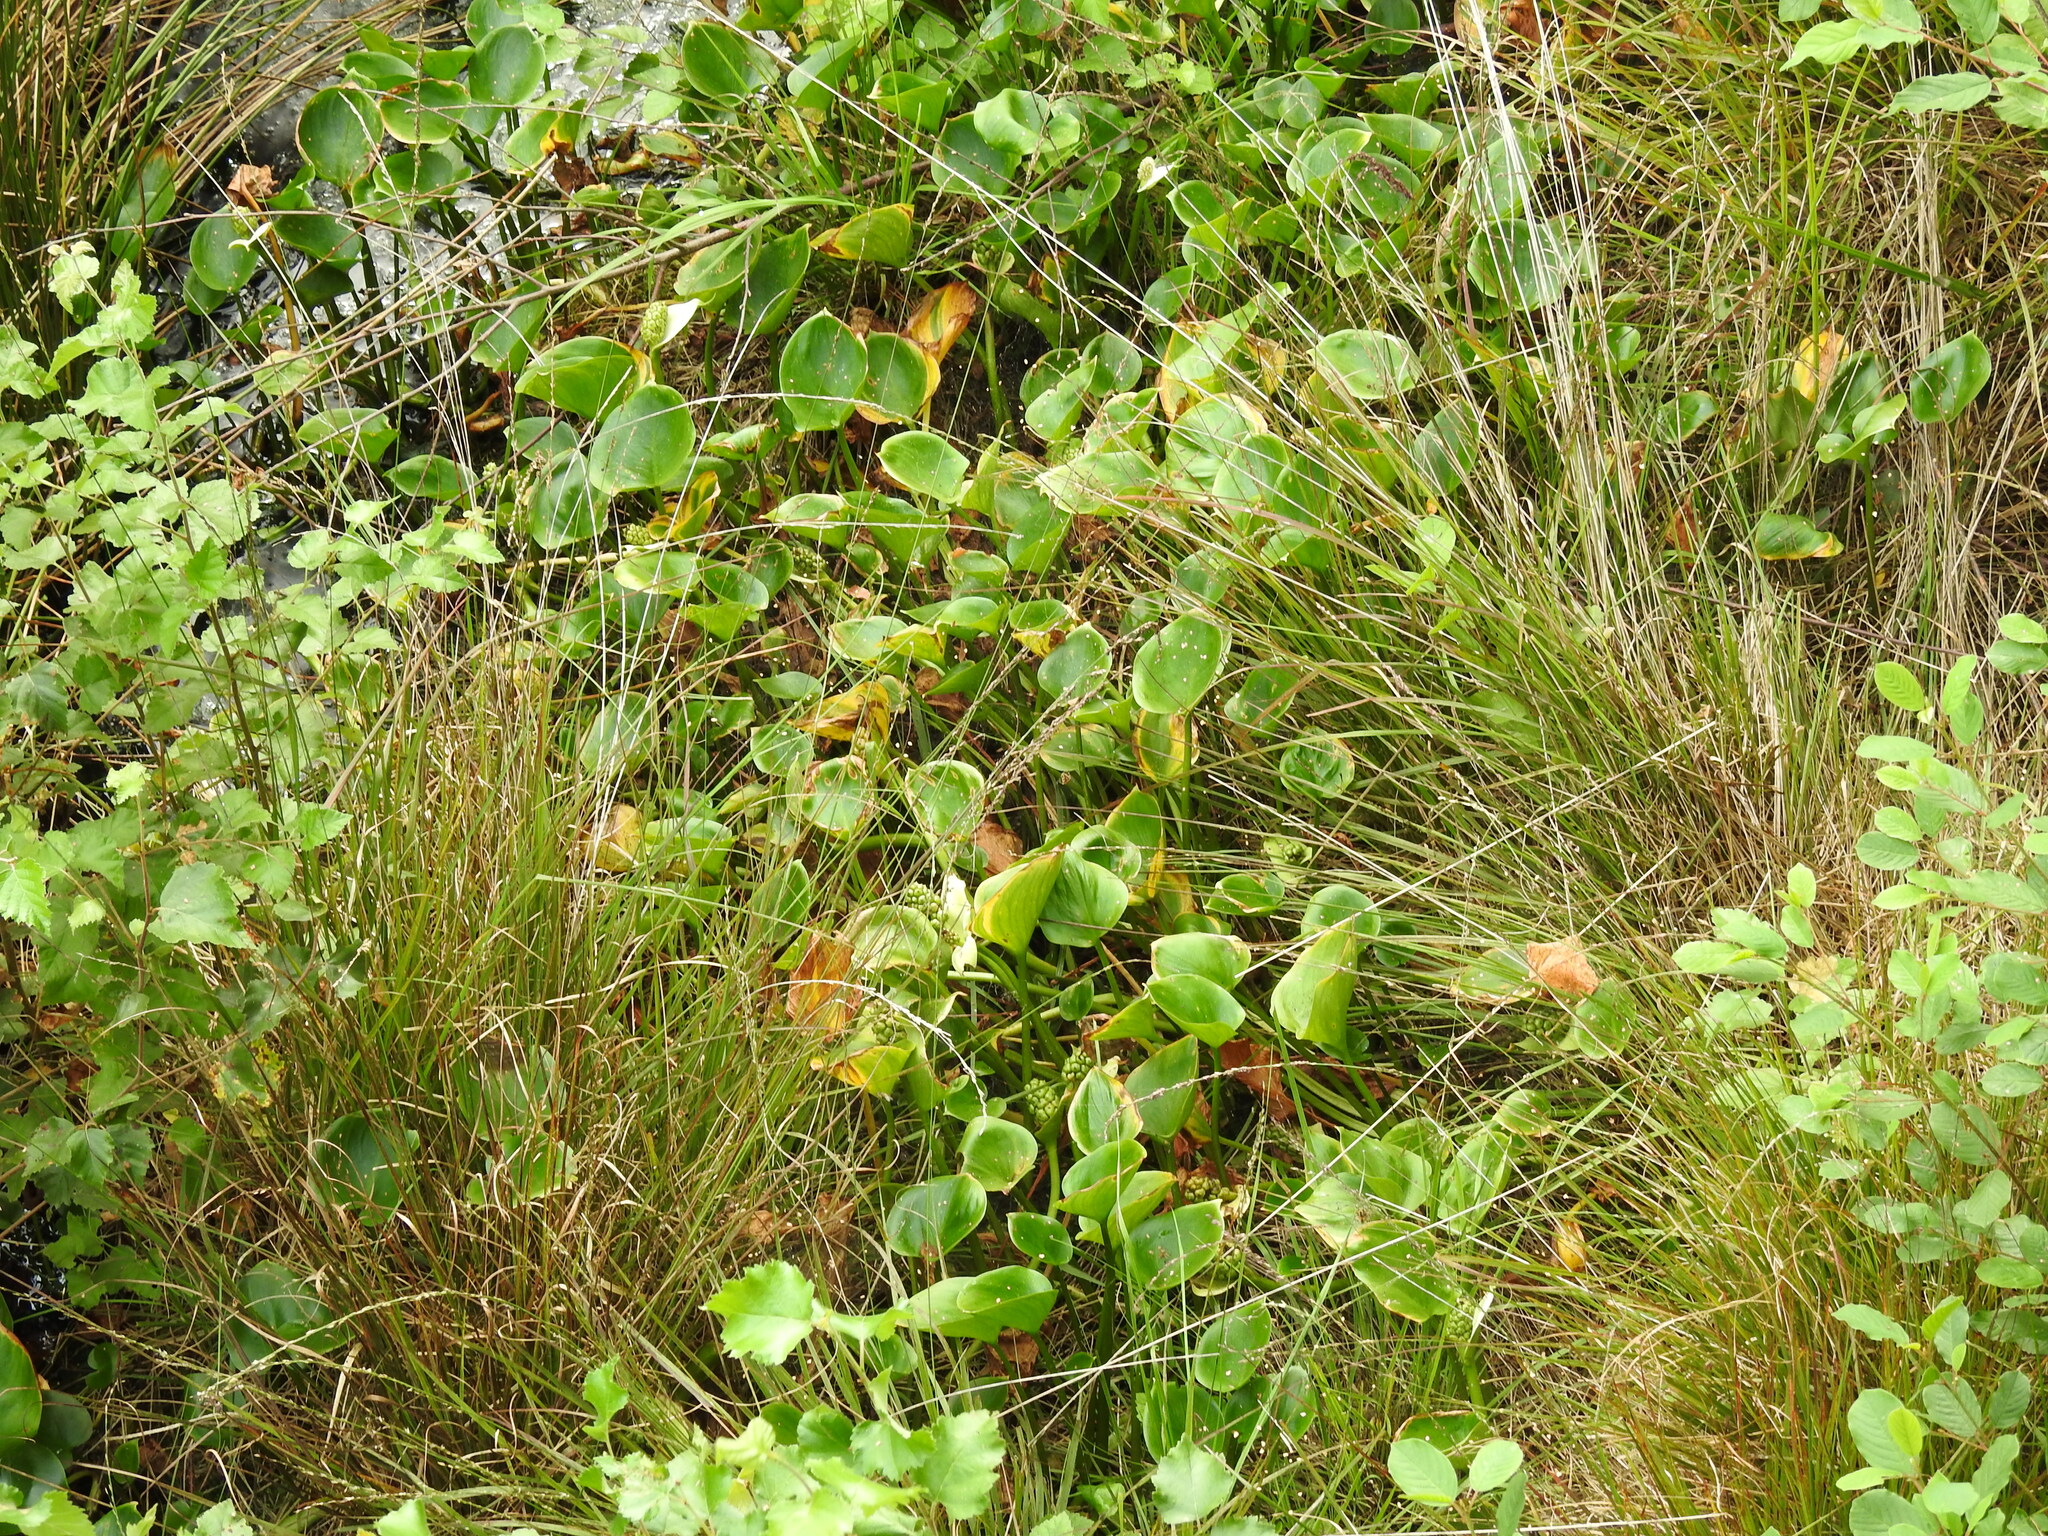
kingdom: Plantae
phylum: Tracheophyta
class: Liliopsida
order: Alismatales
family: Araceae
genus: Calla
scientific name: Calla palustris
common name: Bog arum
